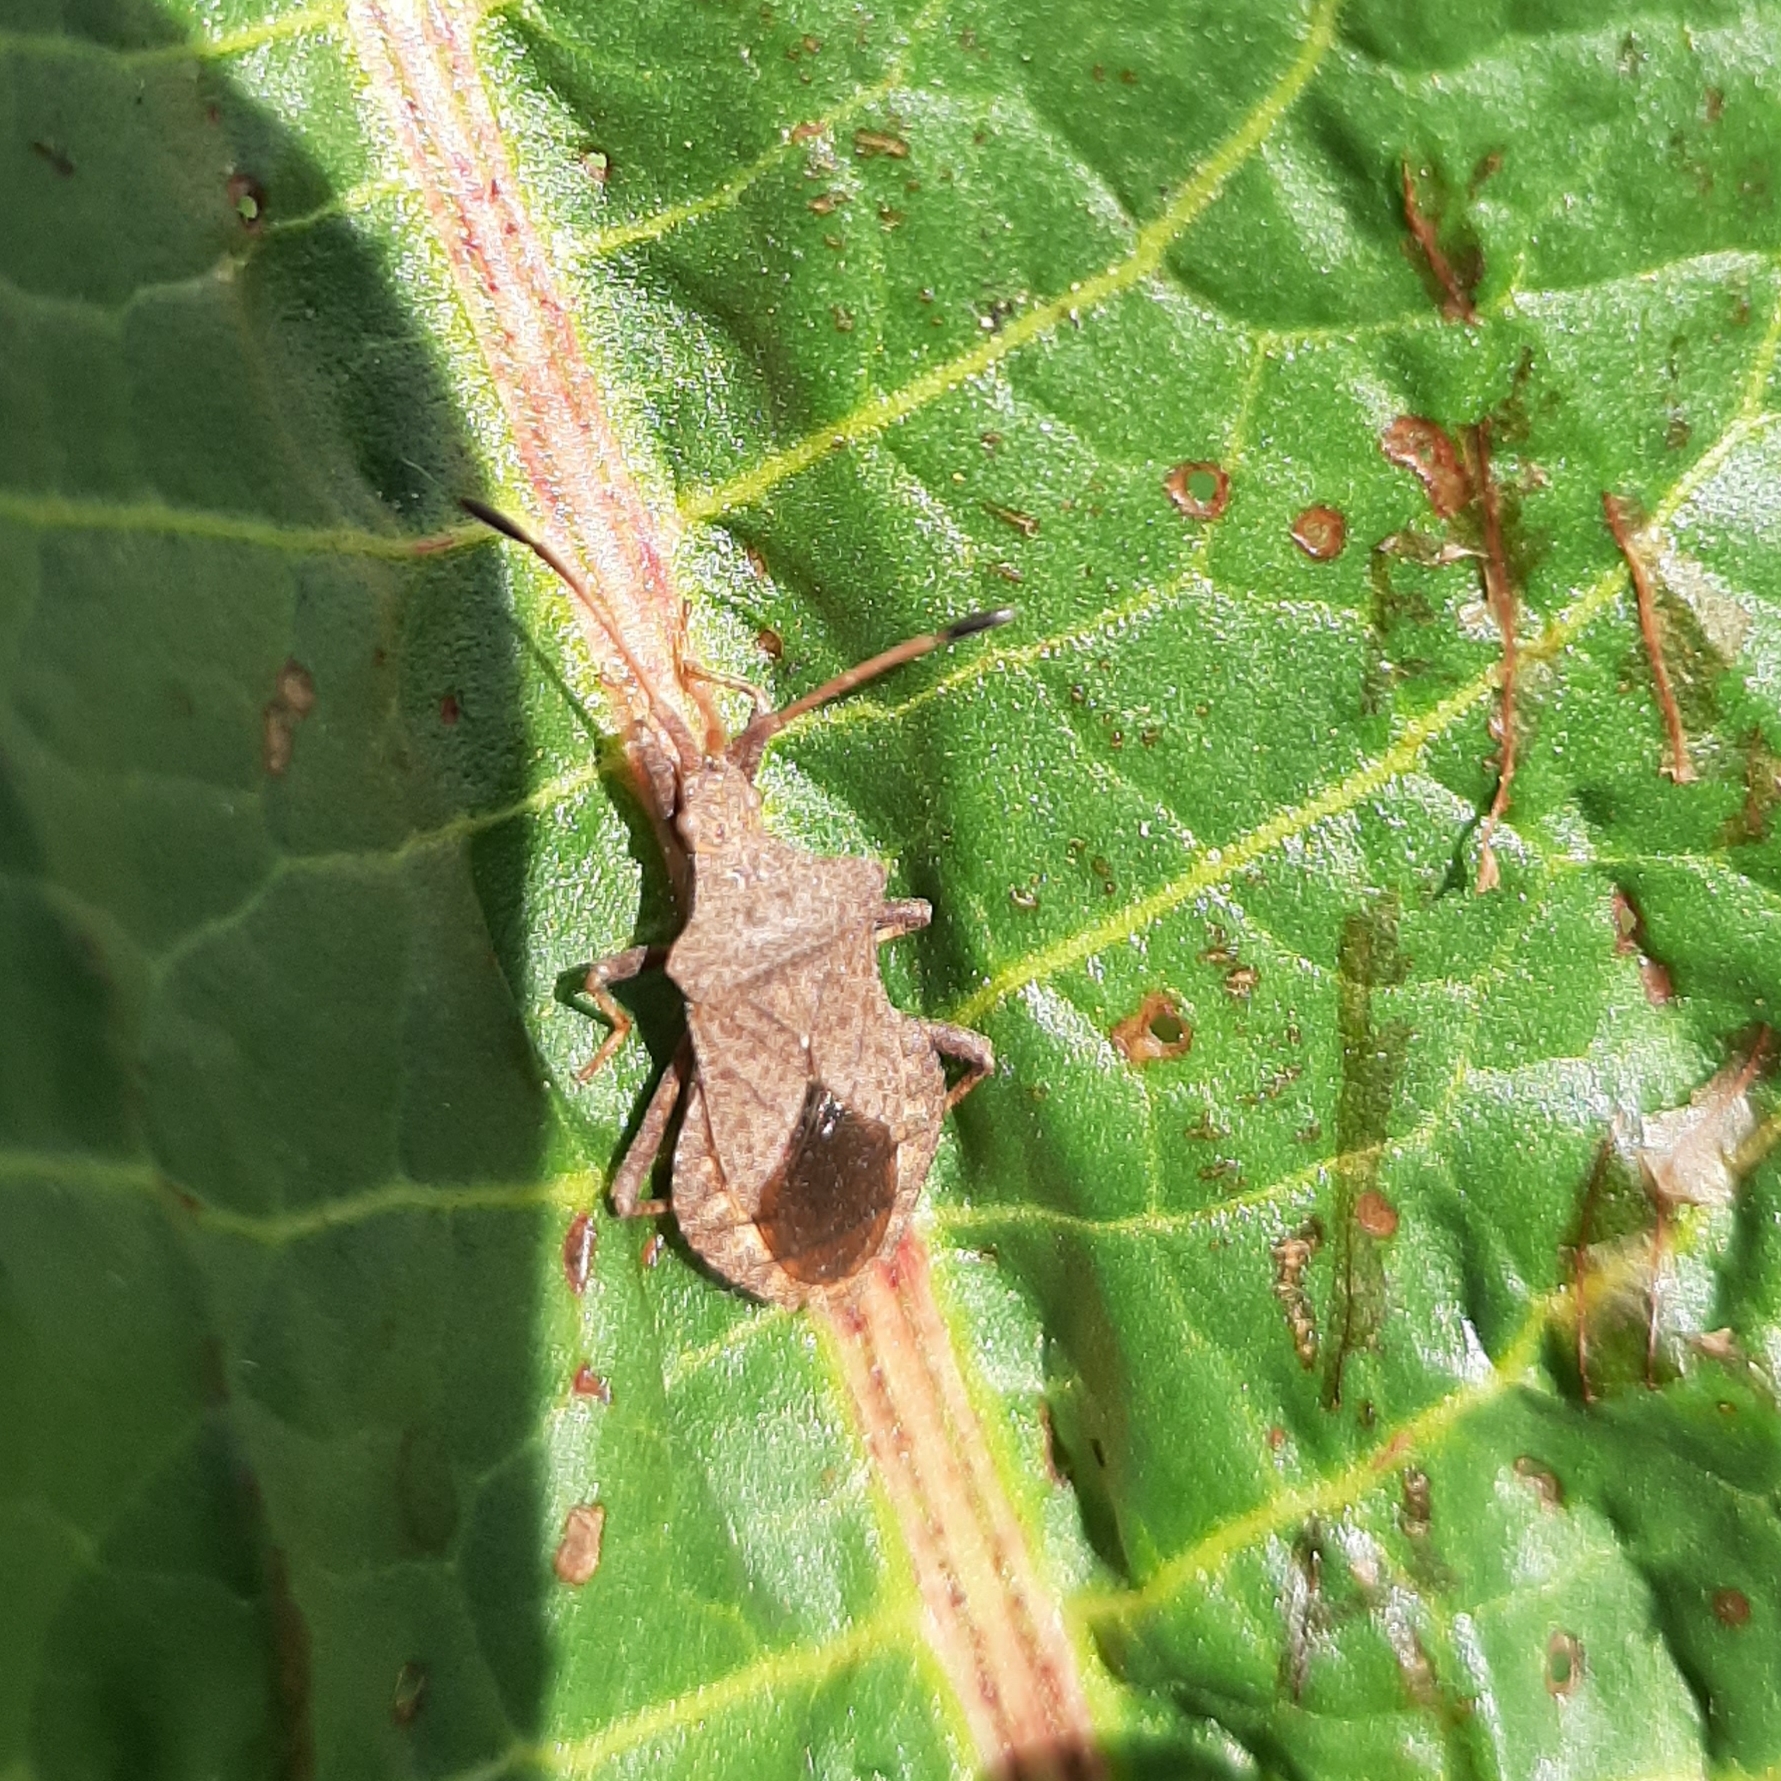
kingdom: Animalia
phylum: Arthropoda
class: Insecta
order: Hemiptera
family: Coreidae
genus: Coreus
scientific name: Coreus marginatus
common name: Dock bug
